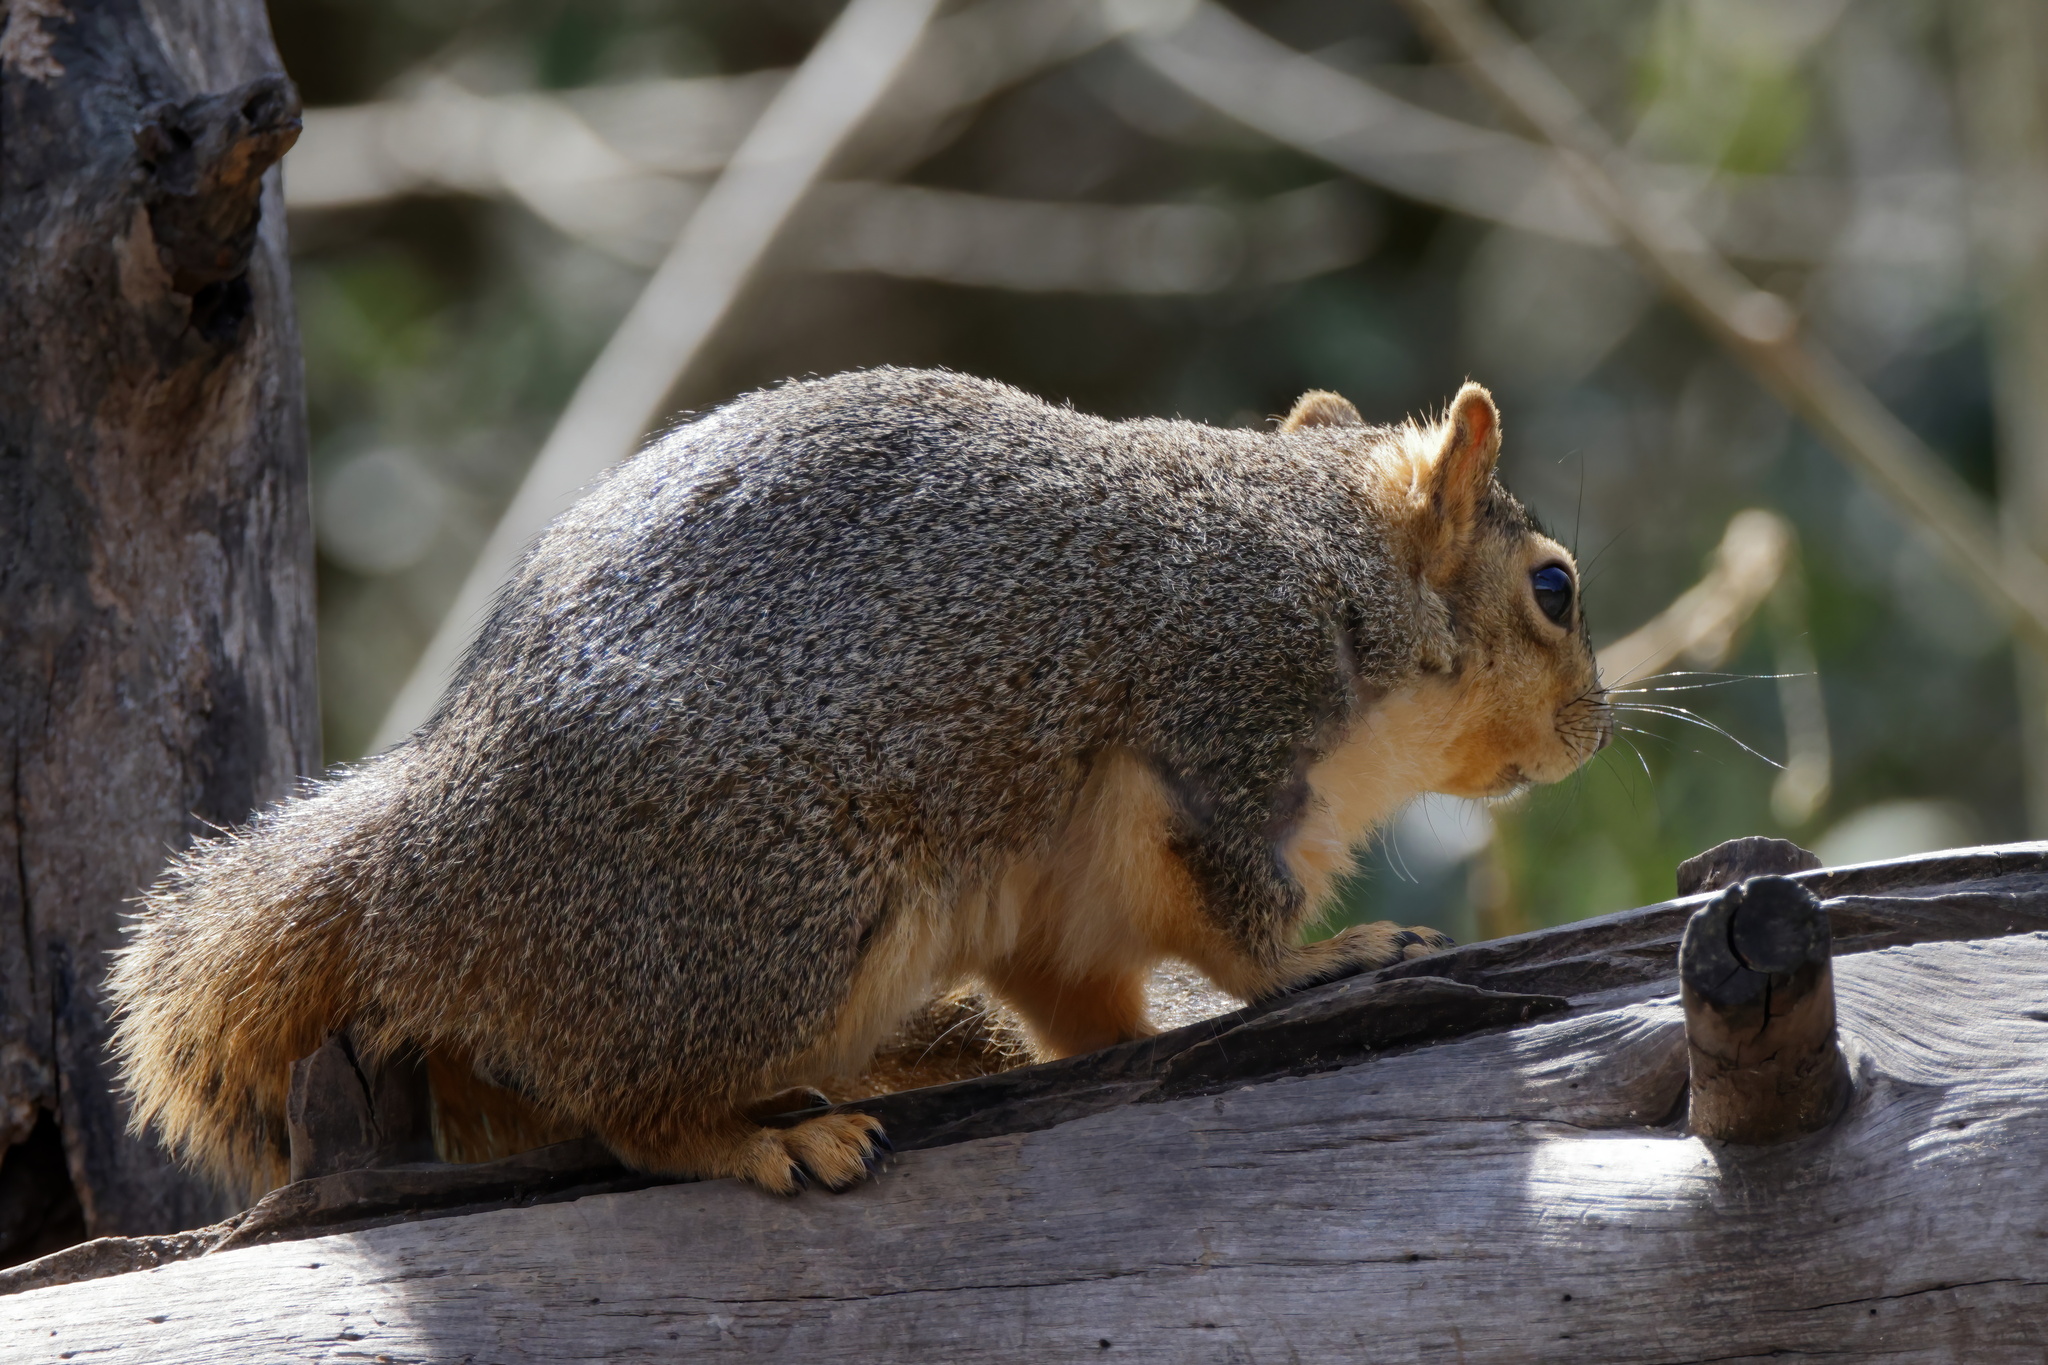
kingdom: Animalia
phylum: Chordata
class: Mammalia
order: Rodentia
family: Sciuridae
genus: Sciurus
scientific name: Sciurus niger
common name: Fox squirrel
